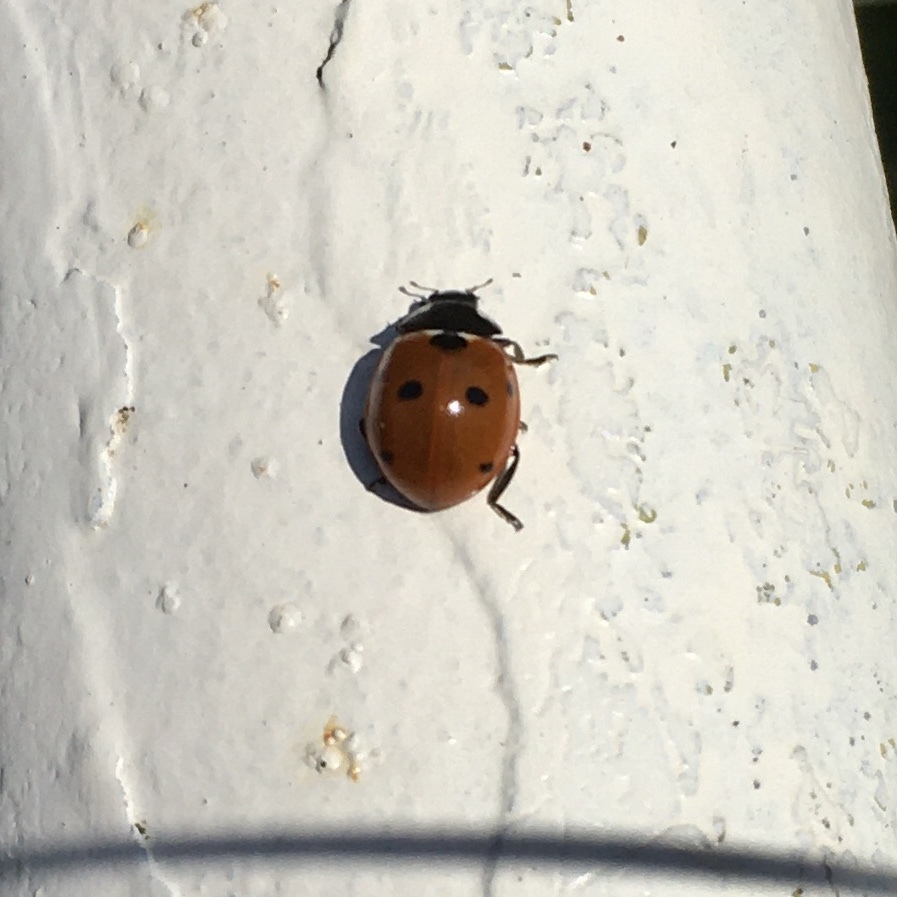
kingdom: Animalia
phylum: Arthropoda
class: Insecta
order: Coleoptera
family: Coccinellidae
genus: Coccinella
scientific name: Coccinella septempunctata
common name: Sevenspotted lady beetle
